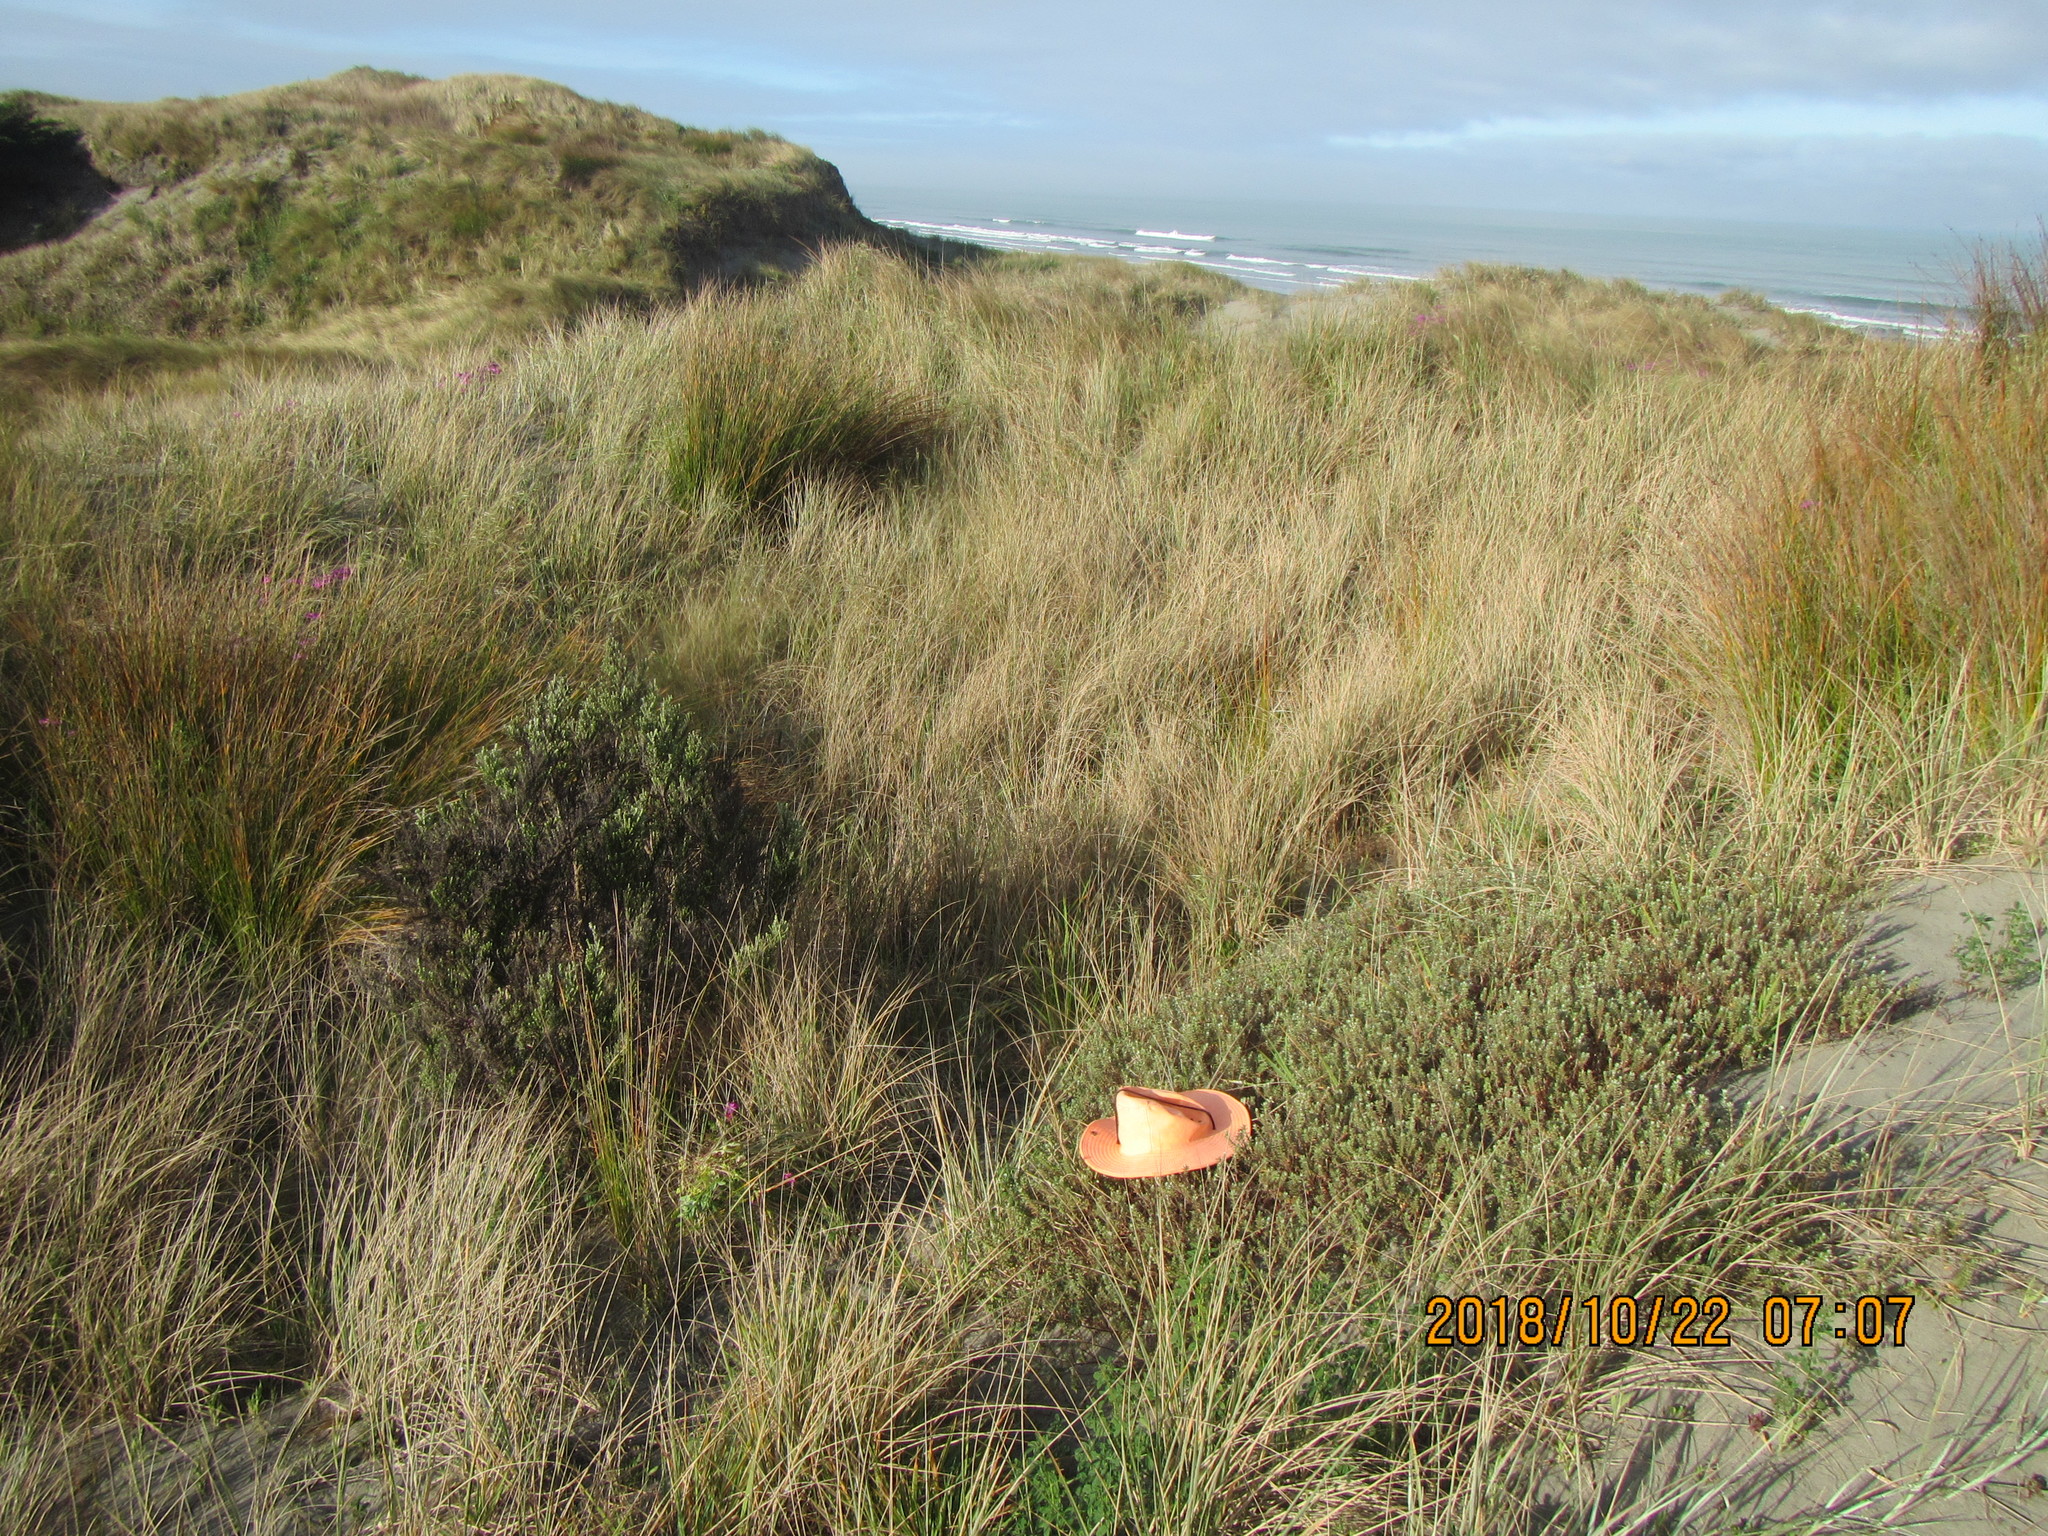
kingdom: Animalia
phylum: Arthropoda
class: Arachnida
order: Araneae
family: Theridiidae
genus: Latrodectus
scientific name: Latrodectus katipo
